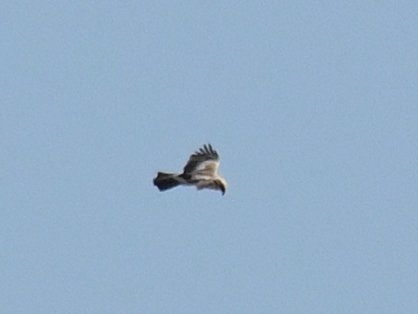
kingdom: Animalia
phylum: Chordata
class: Aves
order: Accipitriformes
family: Accipitridae
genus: Hieraaetus
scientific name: Hieraaetus pennatus
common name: Booted eagle
